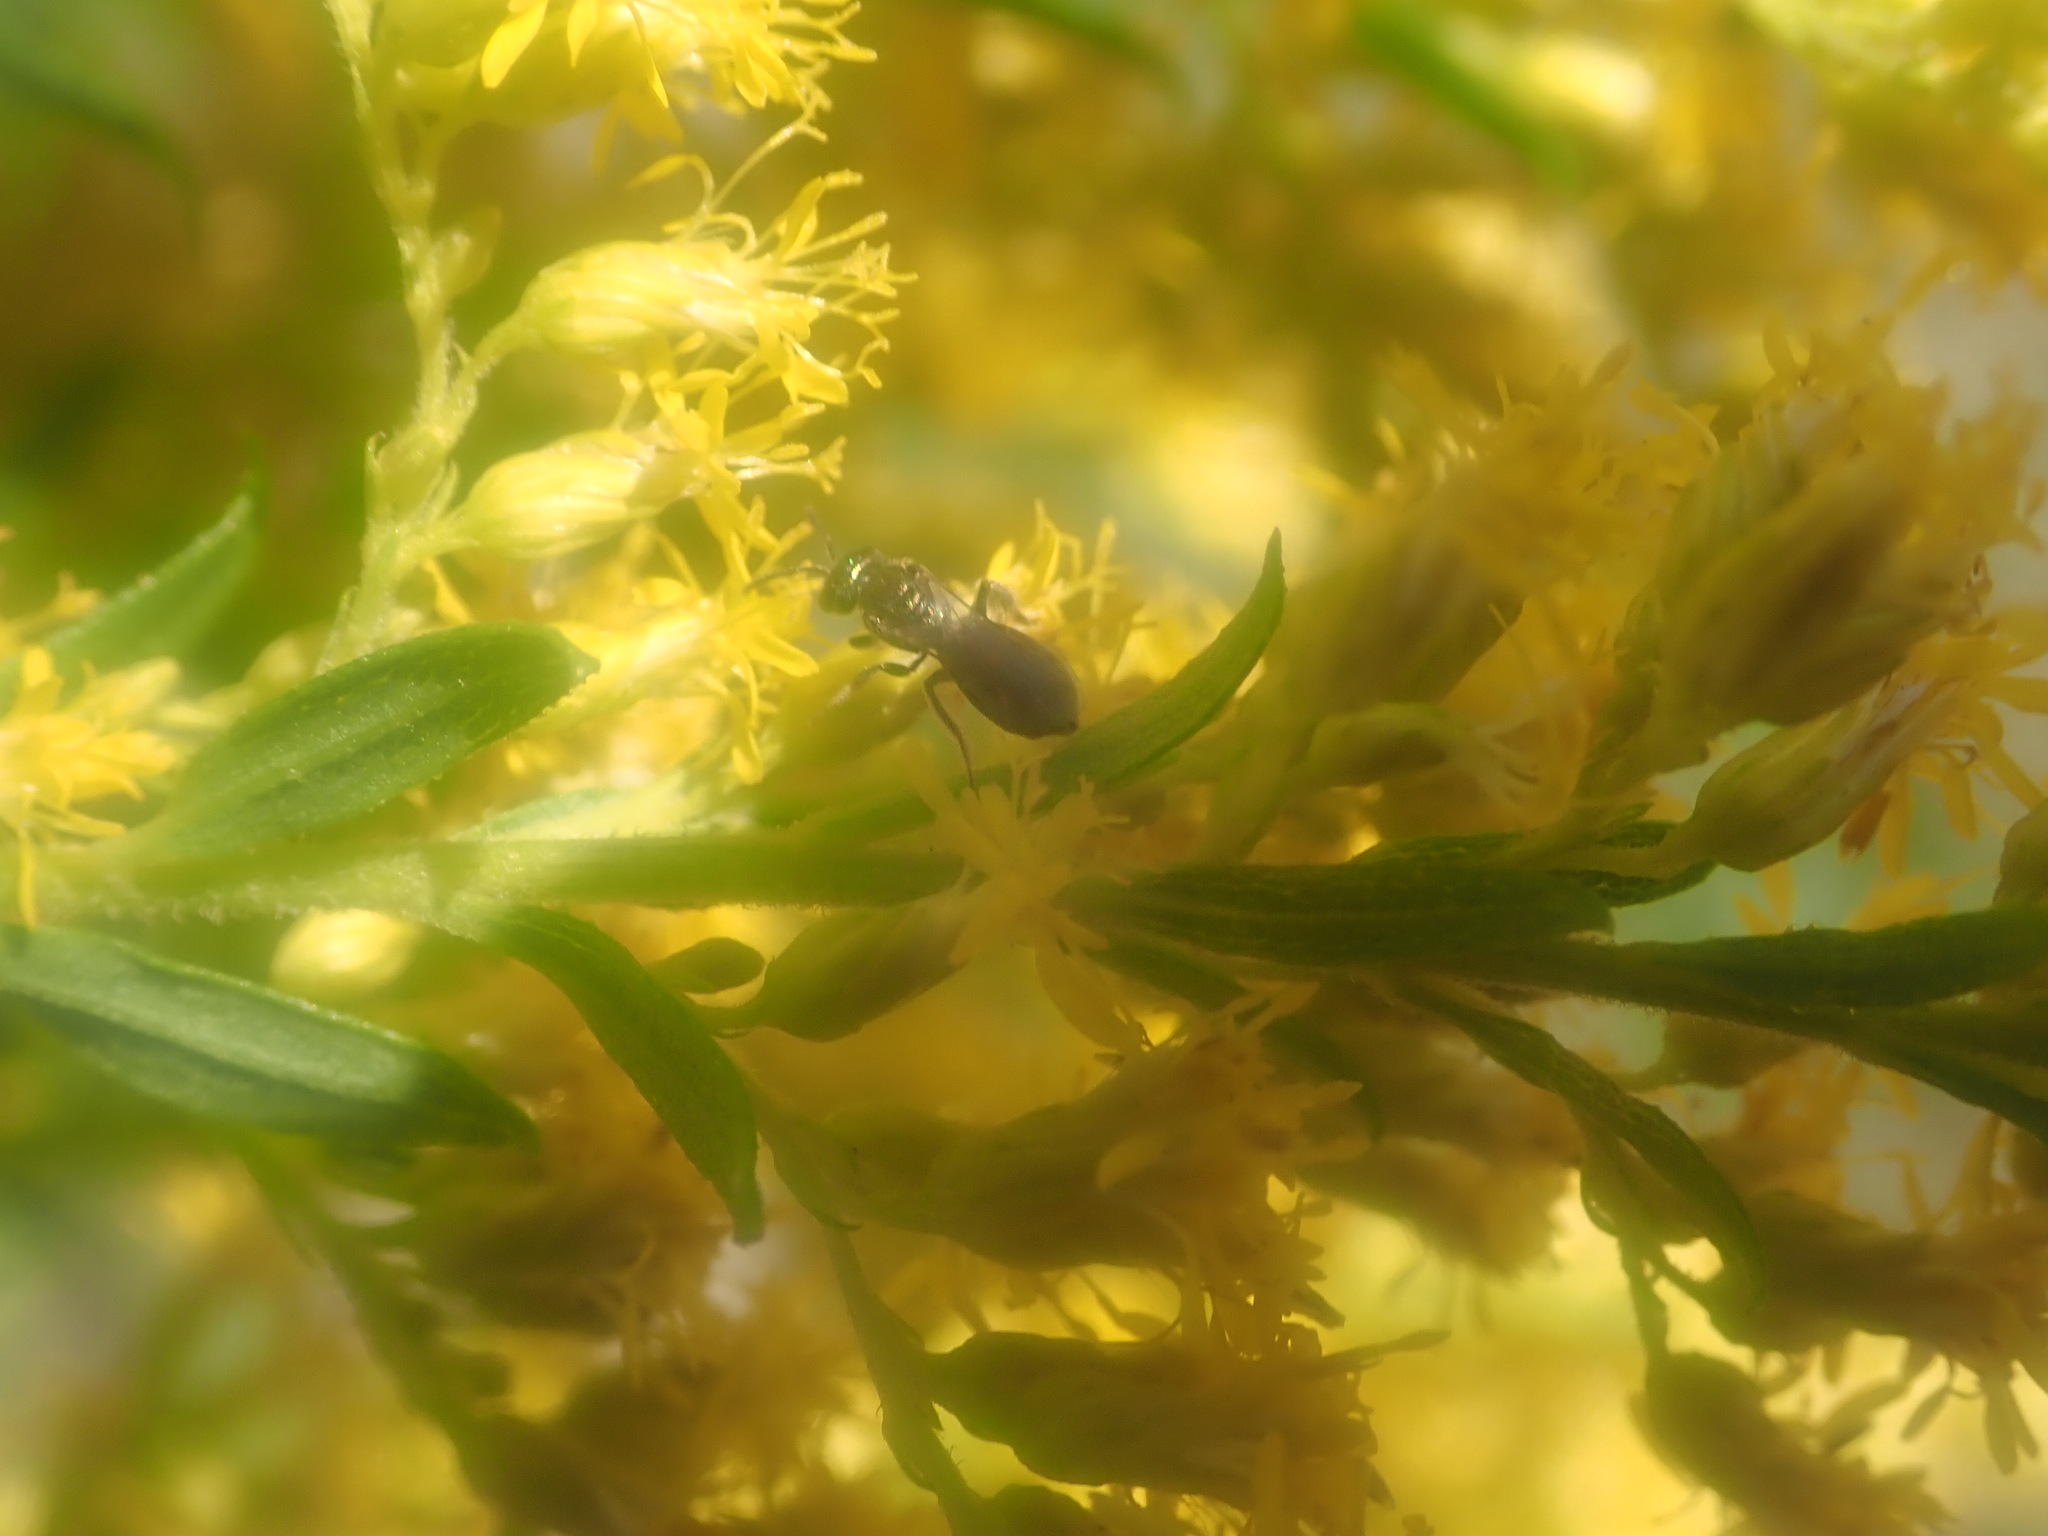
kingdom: Animalia
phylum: Arthropoda
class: Insecta
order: Hymenoptera
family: Apidae
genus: Zadontomerus
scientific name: Zadontomerus
